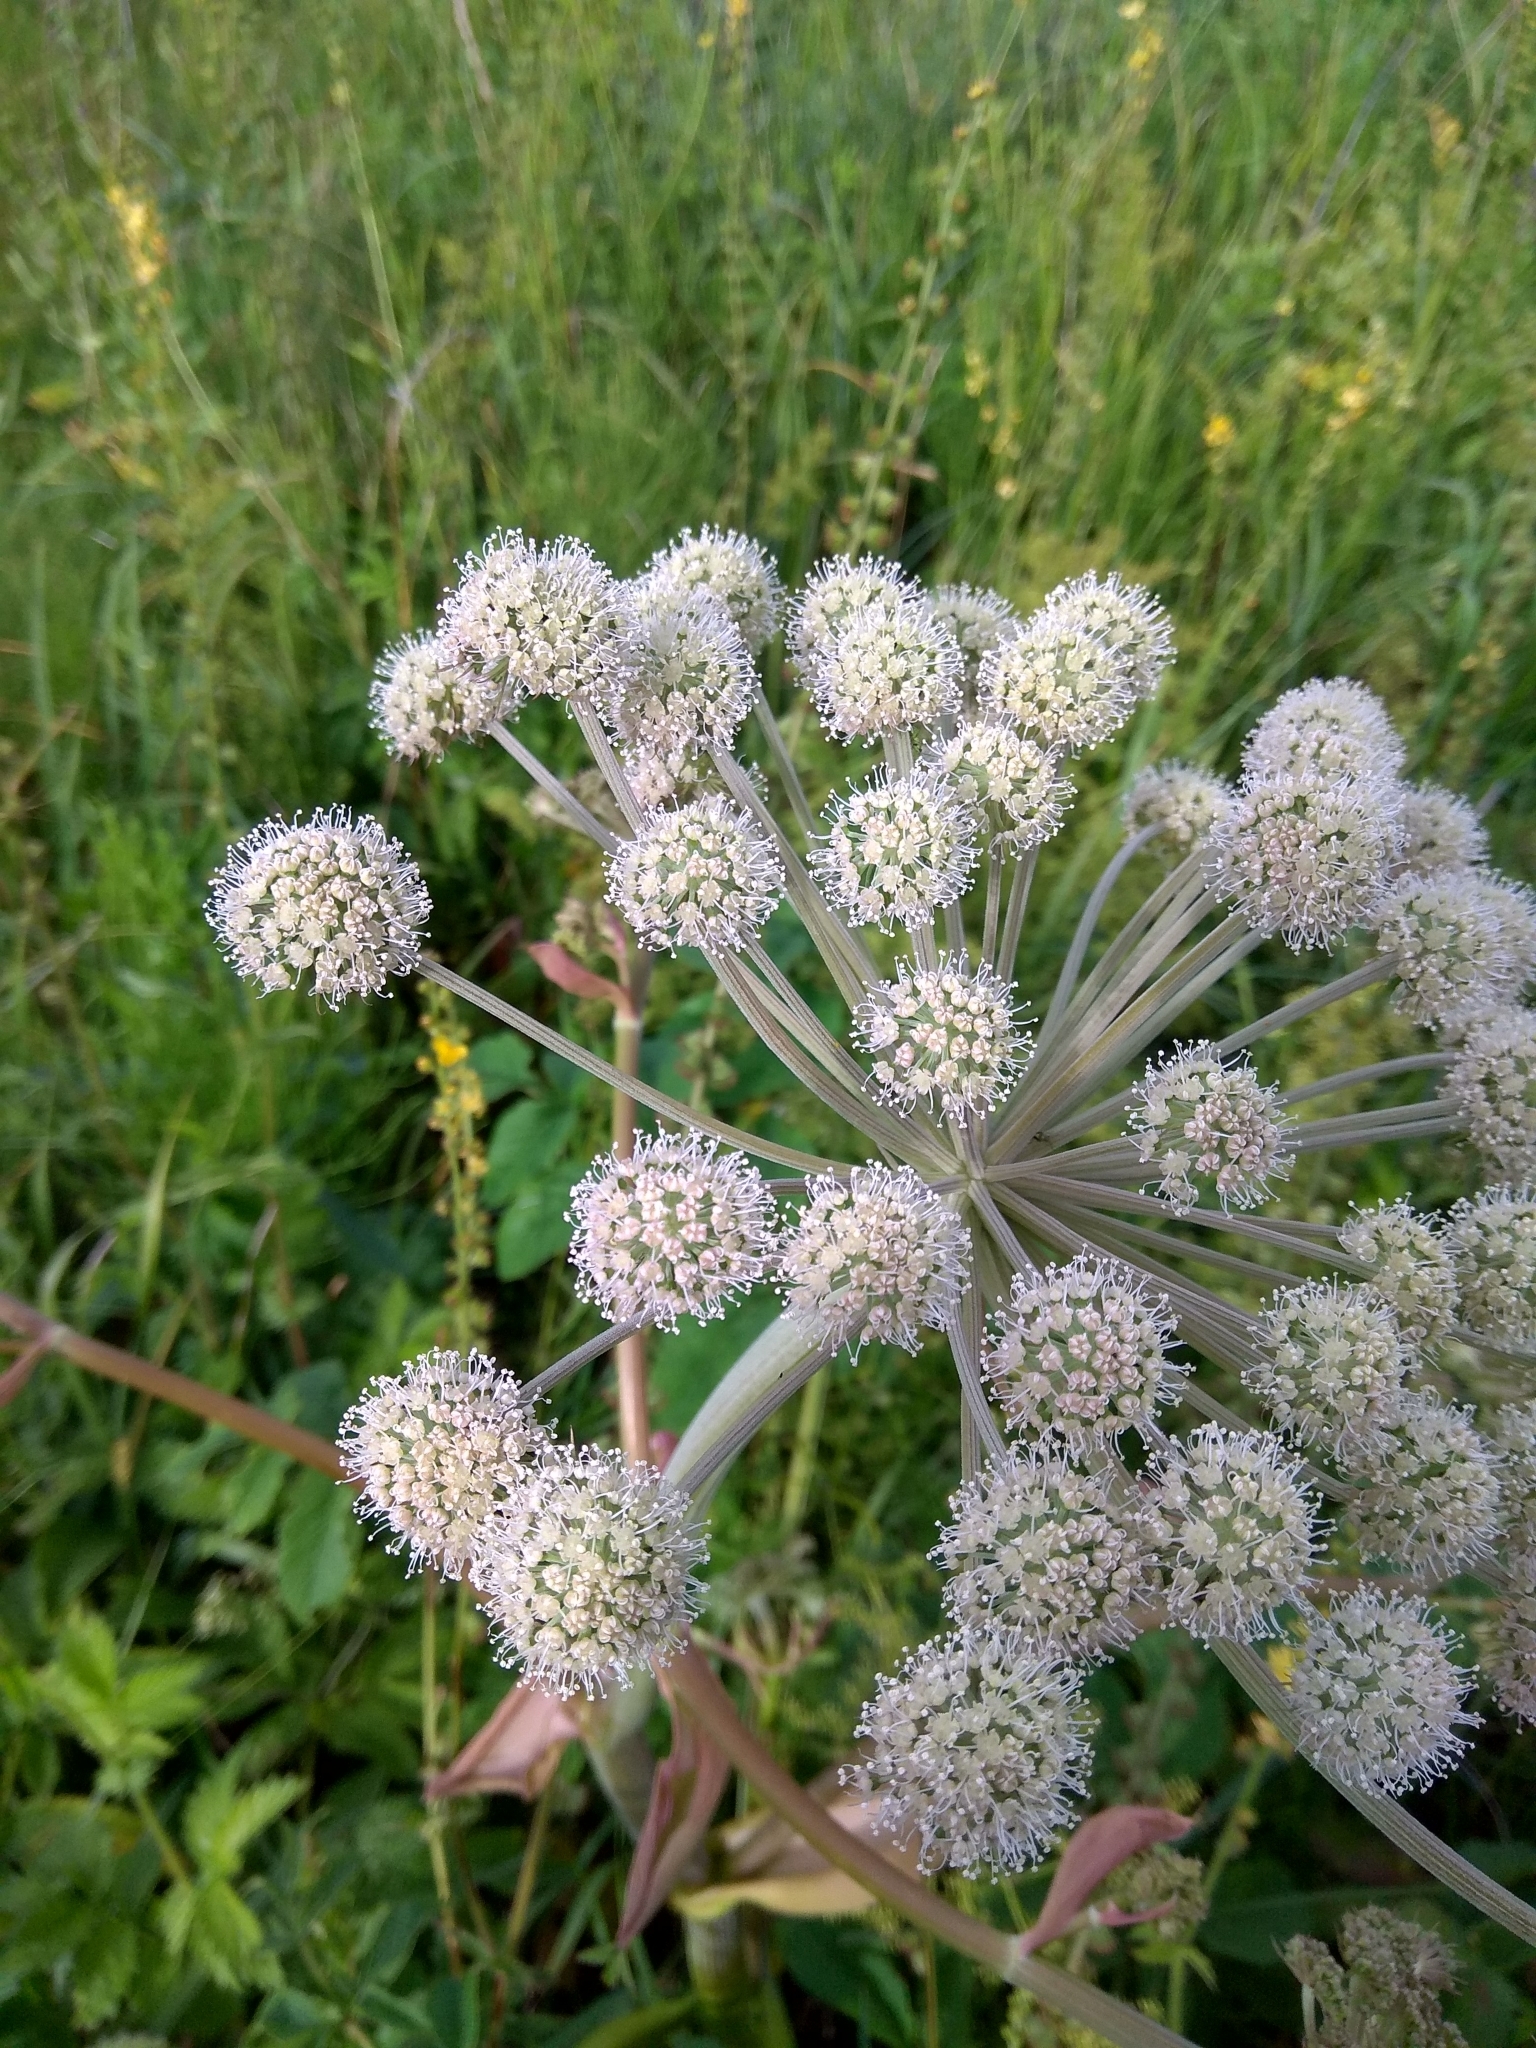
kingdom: Plantae
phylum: Tracheophyta
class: Magnoliopsida
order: Apiales
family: Apiaceae
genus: Angelica
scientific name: Angelica sylvestris
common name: Wild angelica
